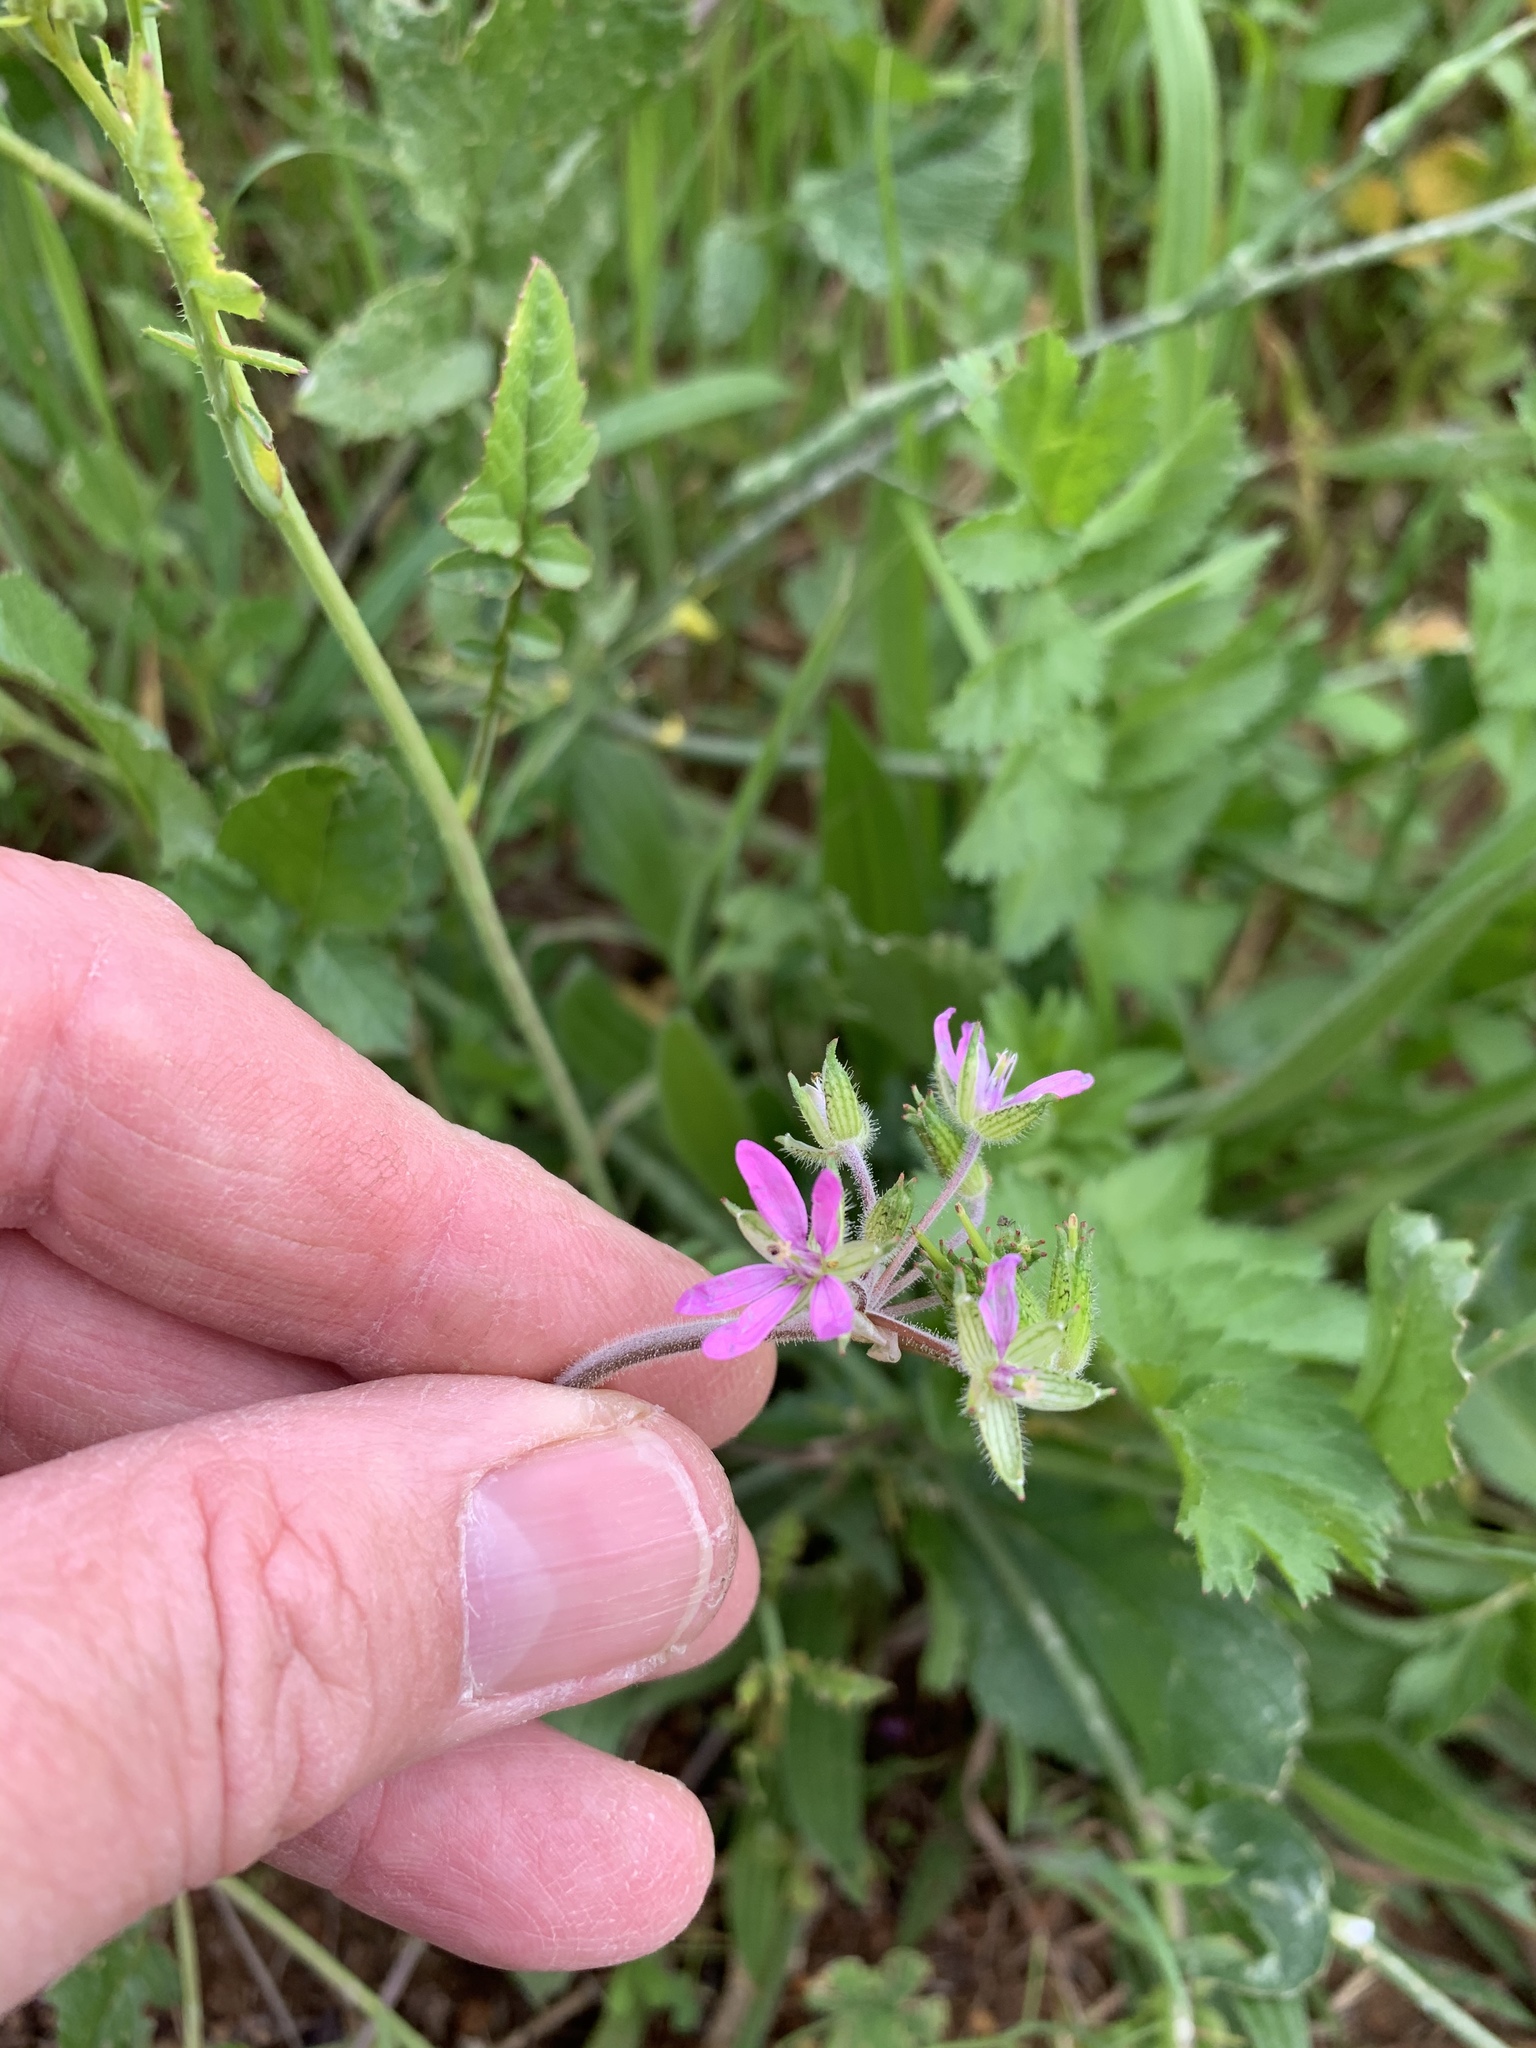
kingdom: Plantae
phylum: Tracheophyta
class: Magnoliopsida
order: Geraniales
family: Geraniaceae
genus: Erodium
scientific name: Erodium moschatum
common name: Musk stork's-bill
